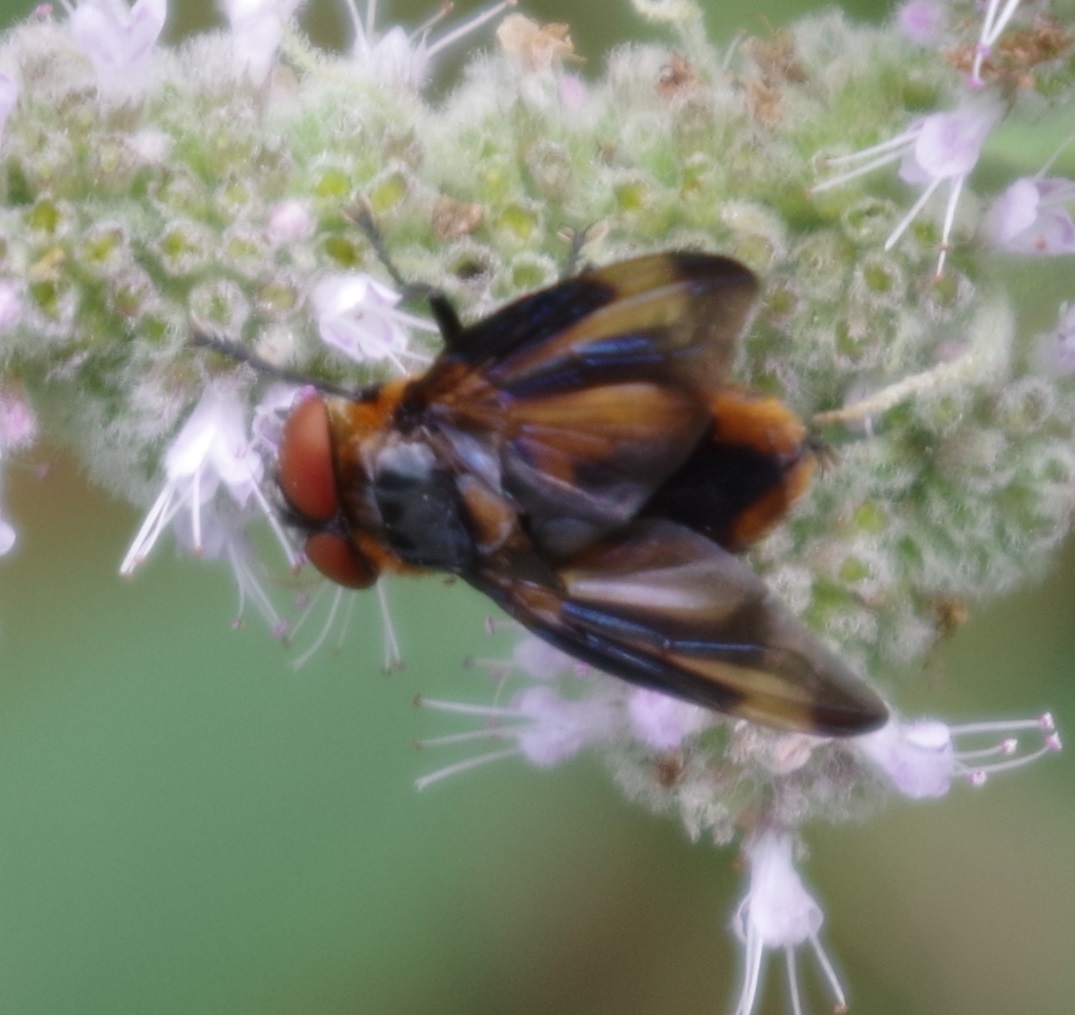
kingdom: Animalia
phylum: Arthropoda
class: Insecta
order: Diptera
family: Tachinidae
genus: Phasia
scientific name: Phasia hemiptera
